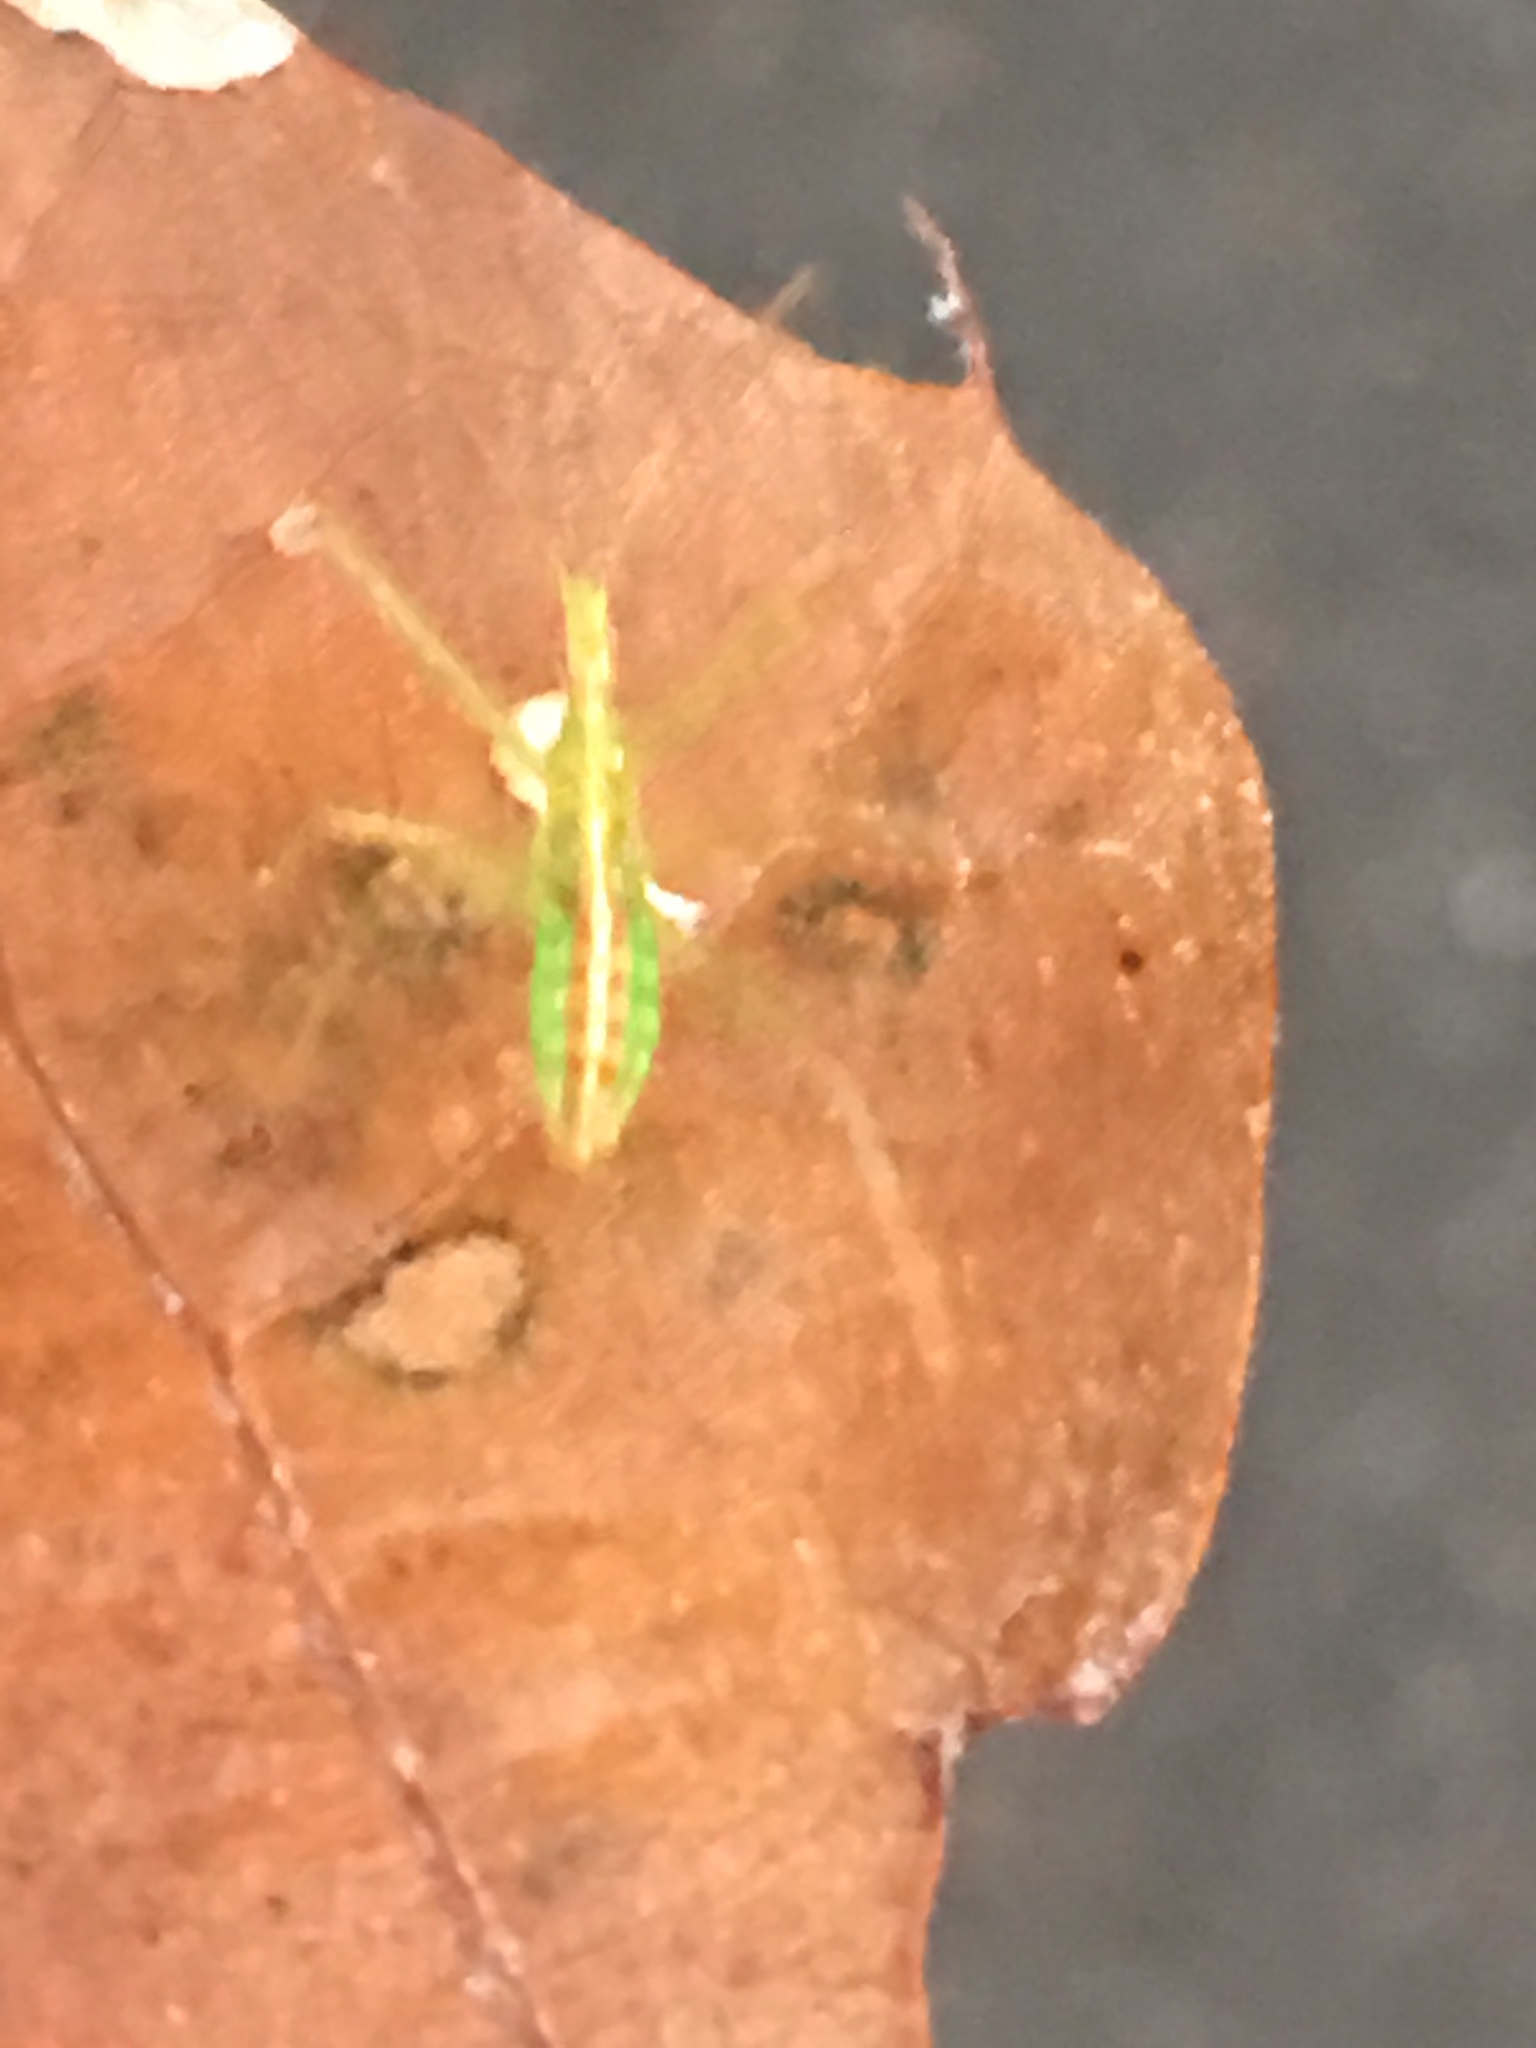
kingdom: Animalia
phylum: Arthropoda
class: Insecta
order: Hemiptera
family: Reduviidae
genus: Zelus
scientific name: Zelus luridus
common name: Pale green assassin bug
